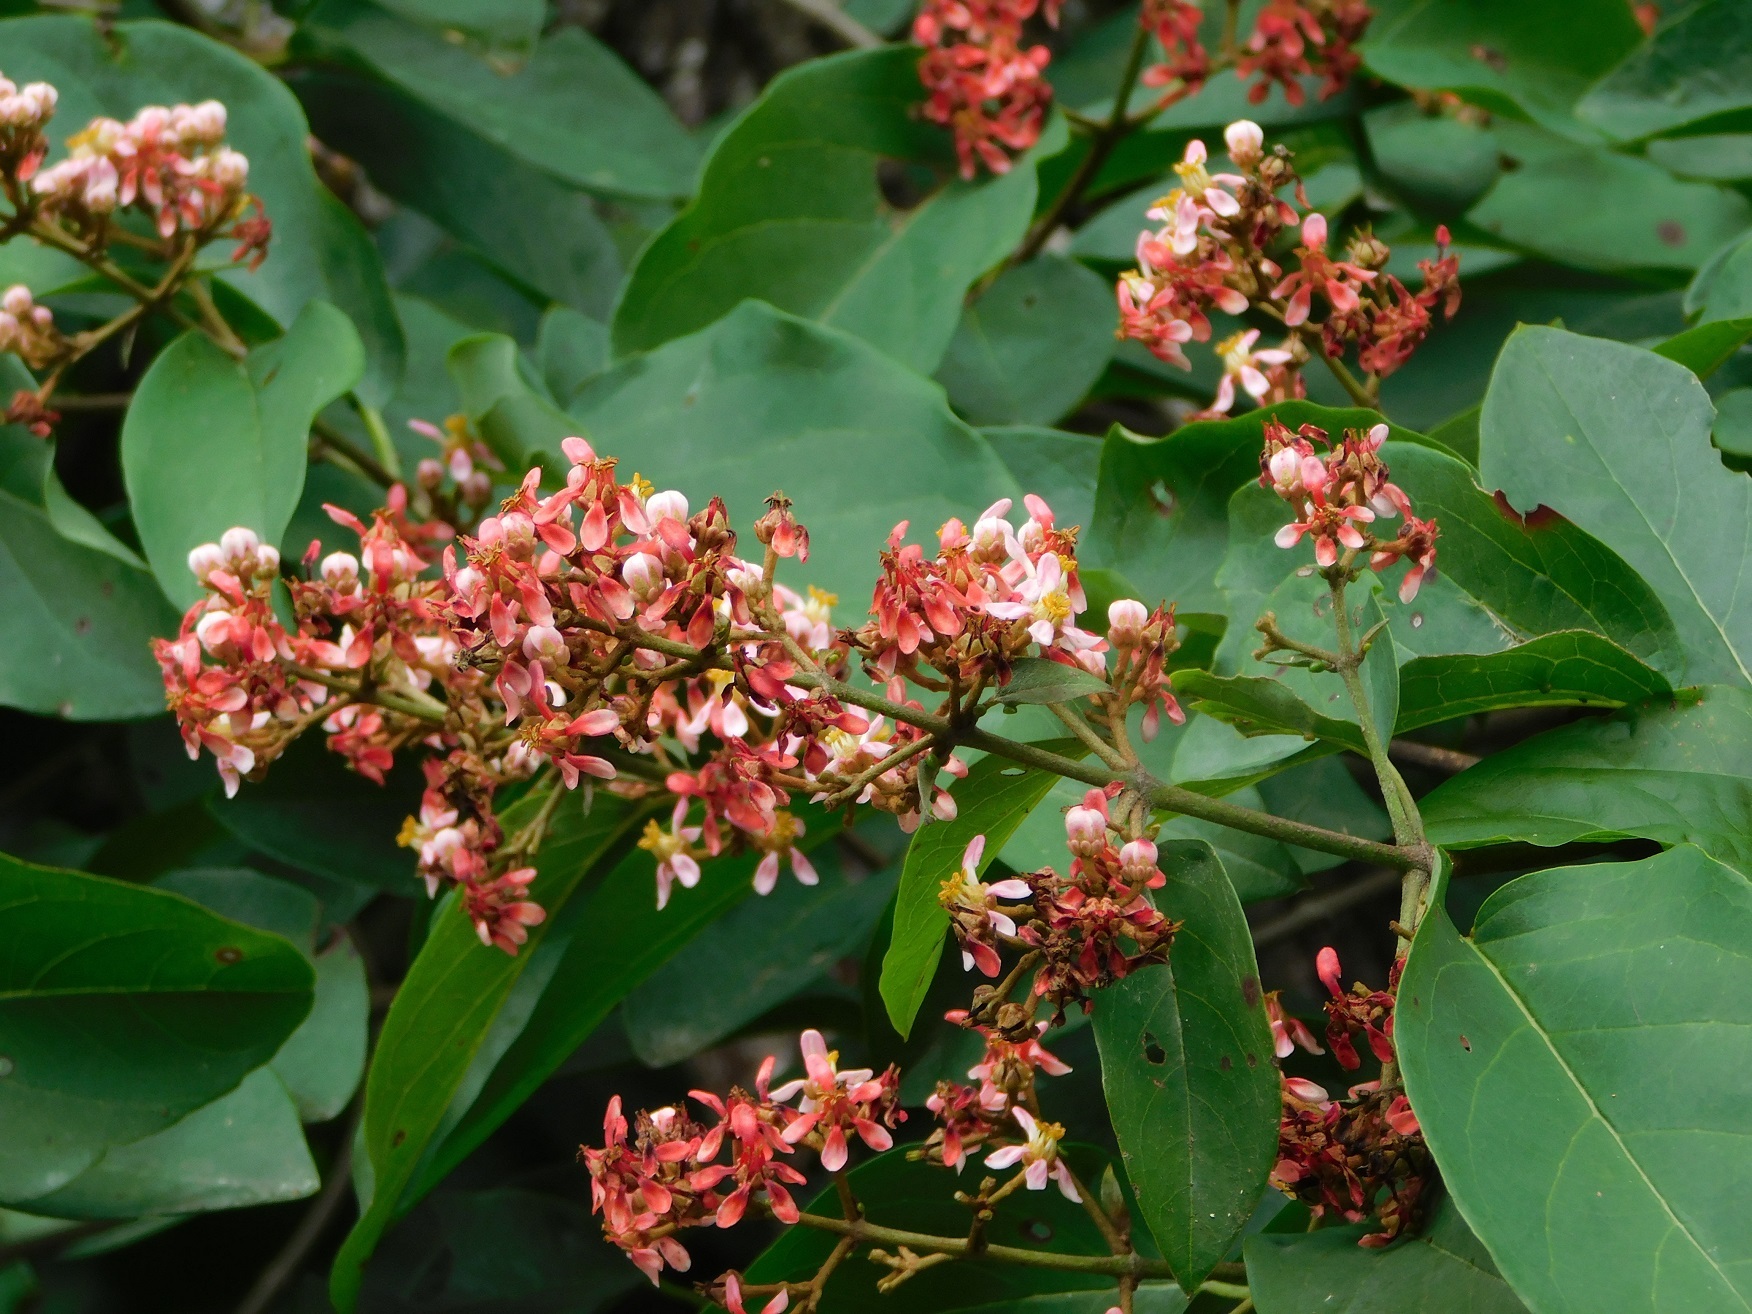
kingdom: Plantae
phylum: Tracheophyta
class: Magnoliopsida
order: Malpighiales
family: Malpighiaceae
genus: Heteropterys
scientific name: Heteropterys cotinifolia
